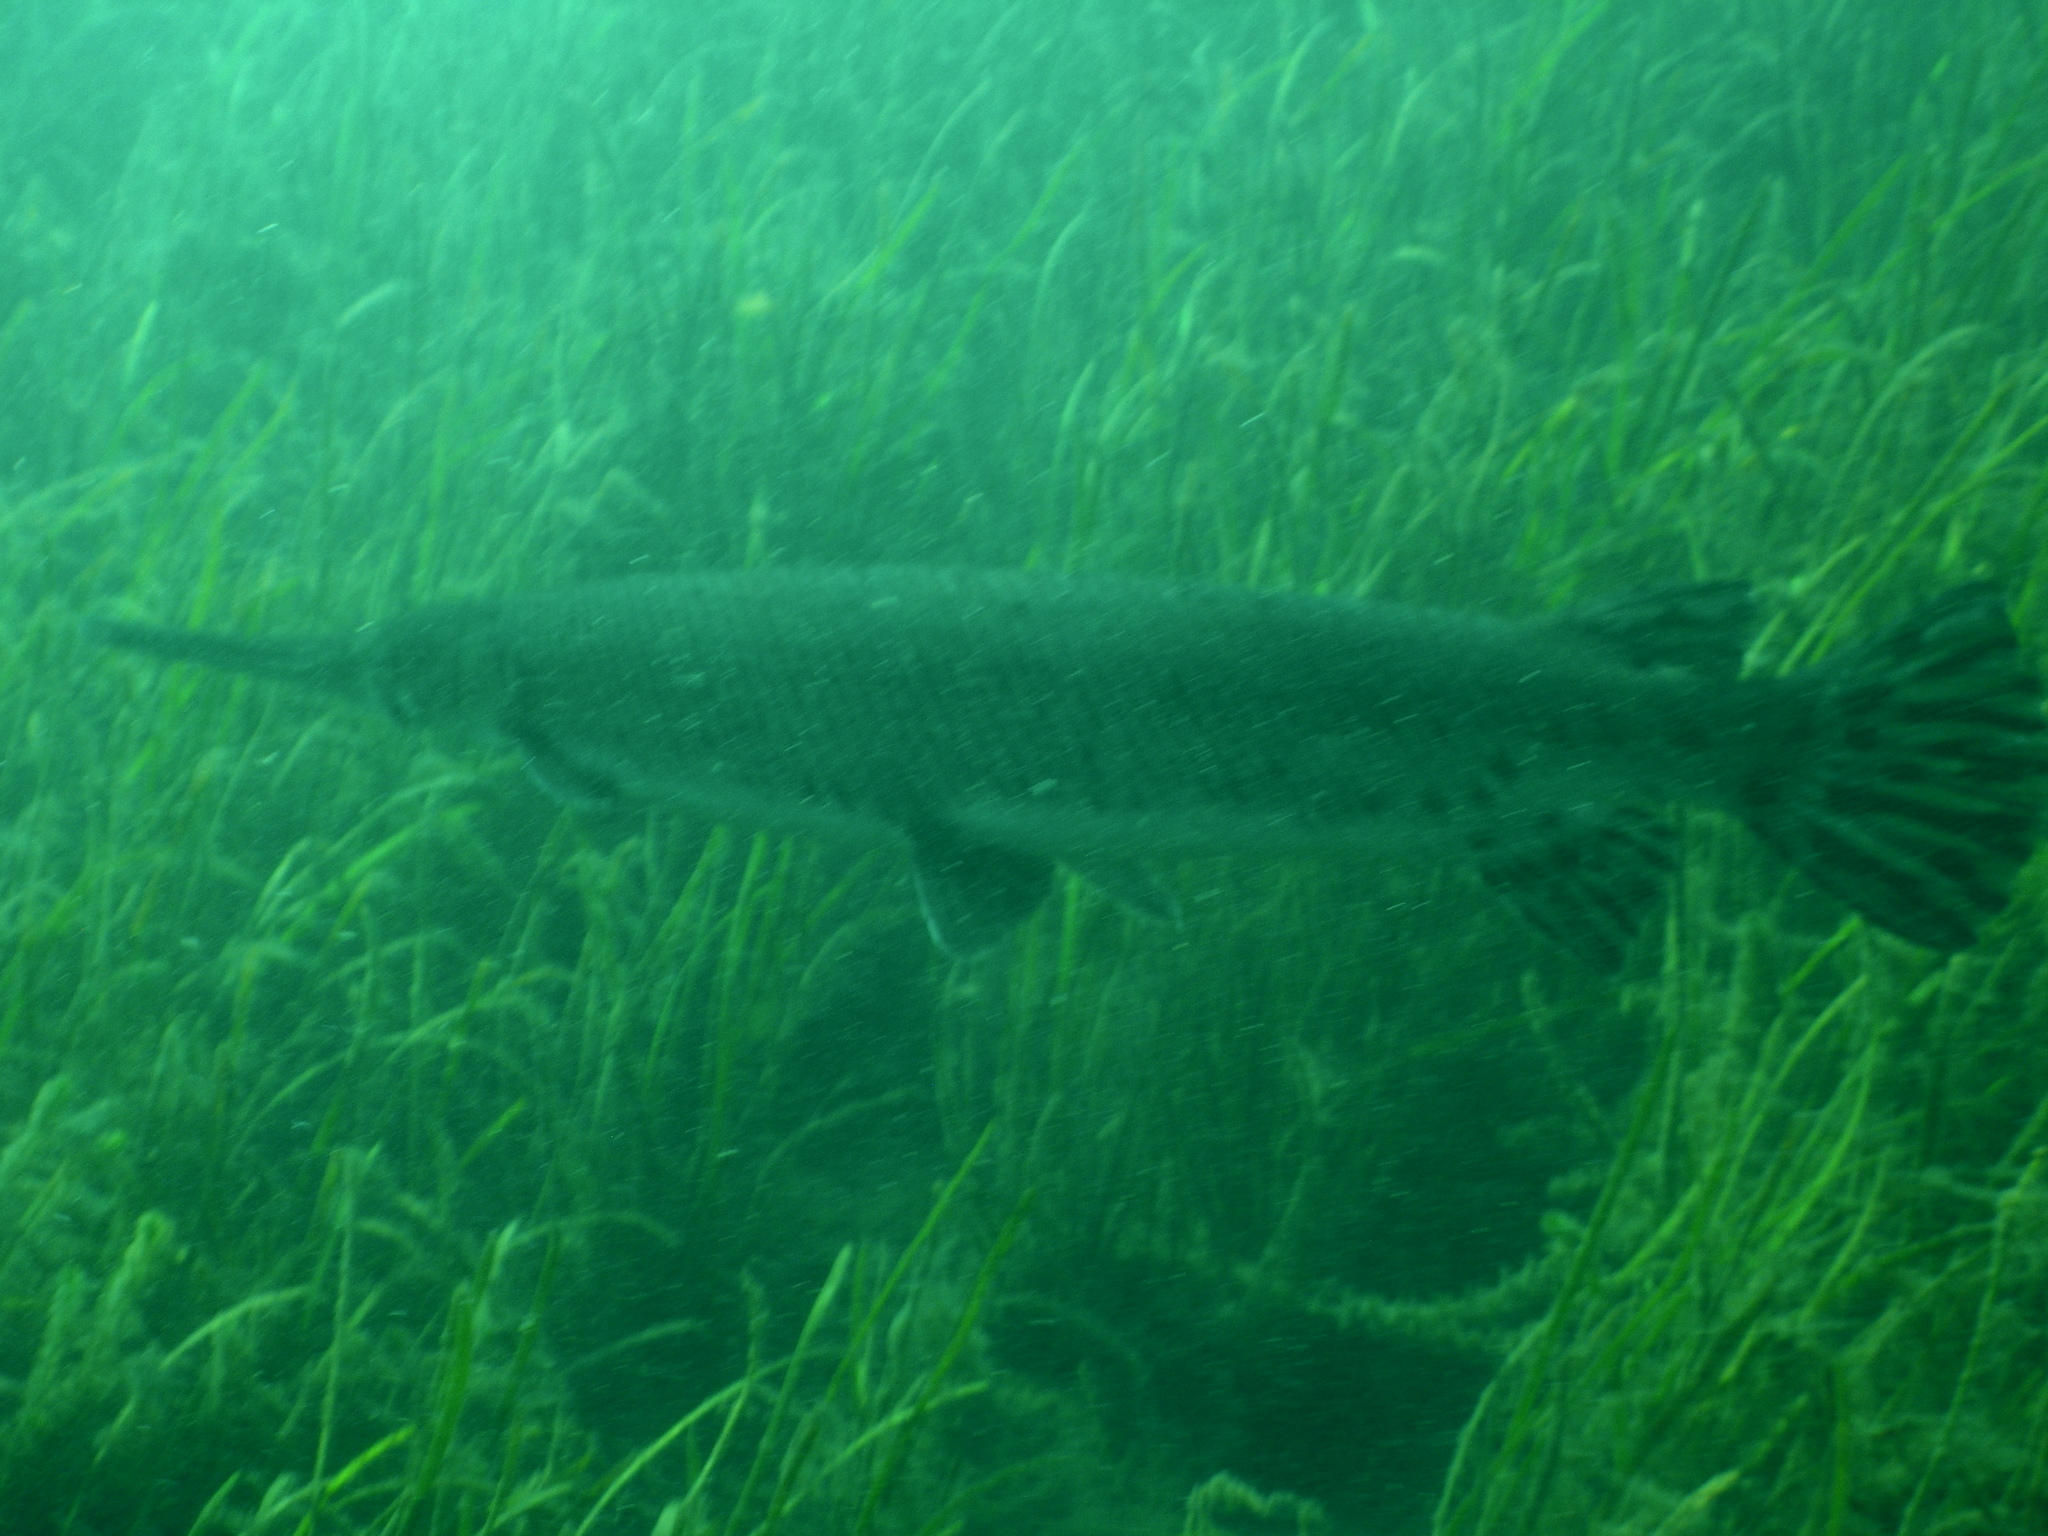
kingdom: Animalia
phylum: Chordata
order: Lepisosteiformes
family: Lepisosteidae
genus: Lepisosteus
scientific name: Lepisosteus osseus
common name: Longnose gar
